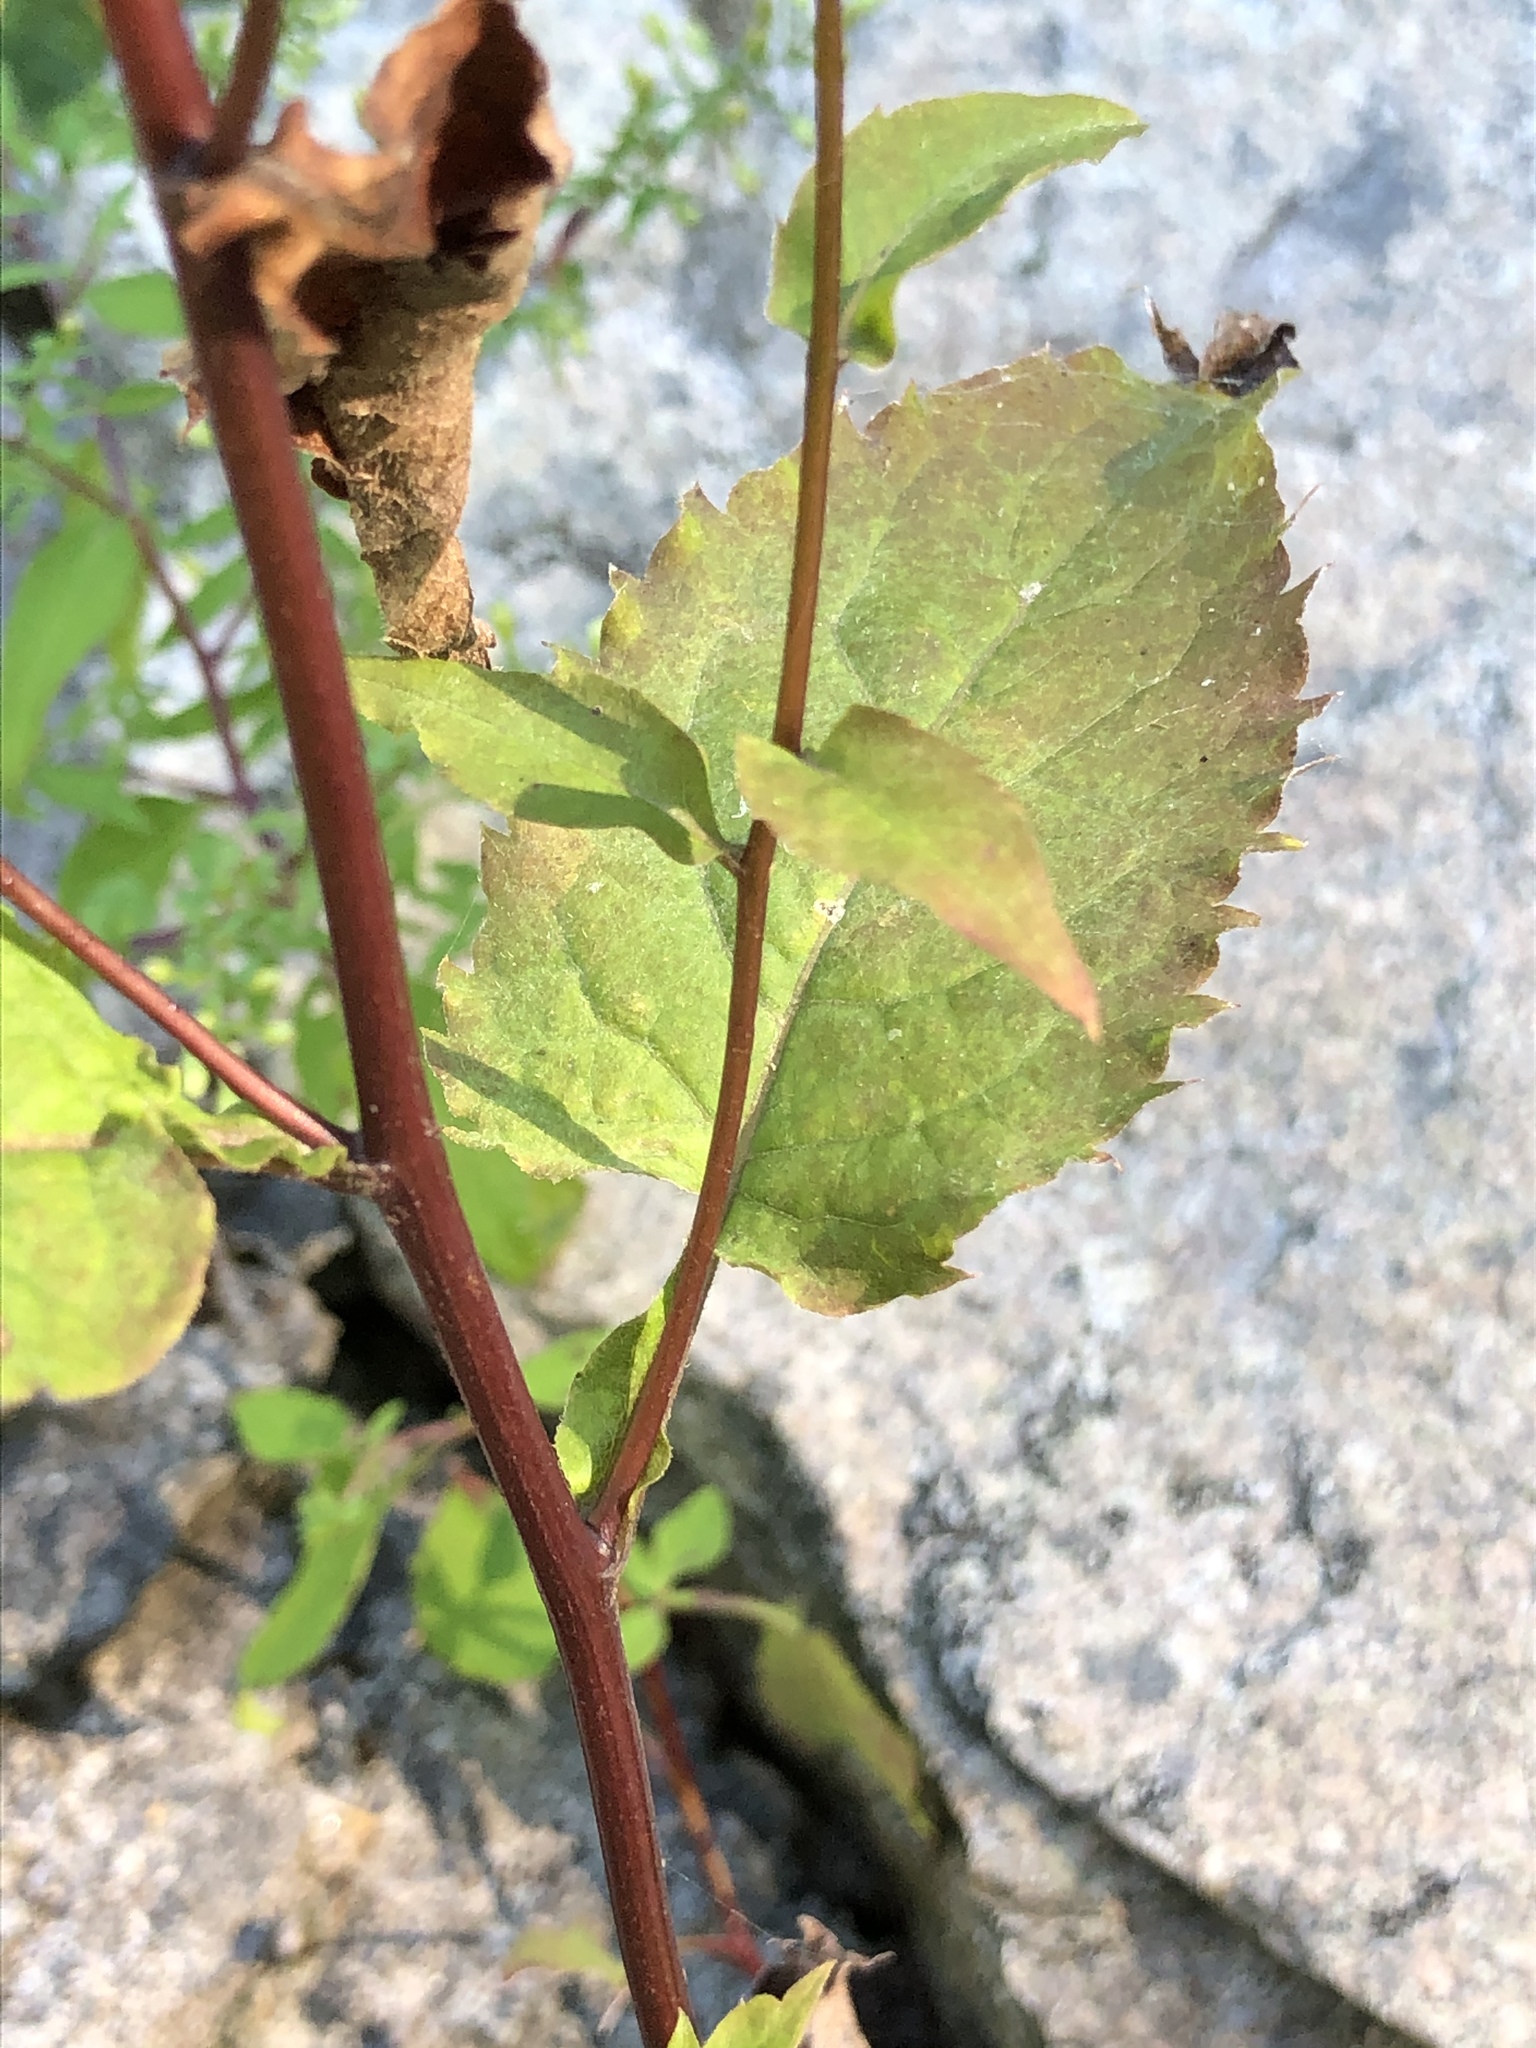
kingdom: Plantae
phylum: Tracheophyta
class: Magnoliopsida
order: Asterales
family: Asteraceae
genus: Eurybia
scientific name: Eurybia divaricata
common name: White wood aster
